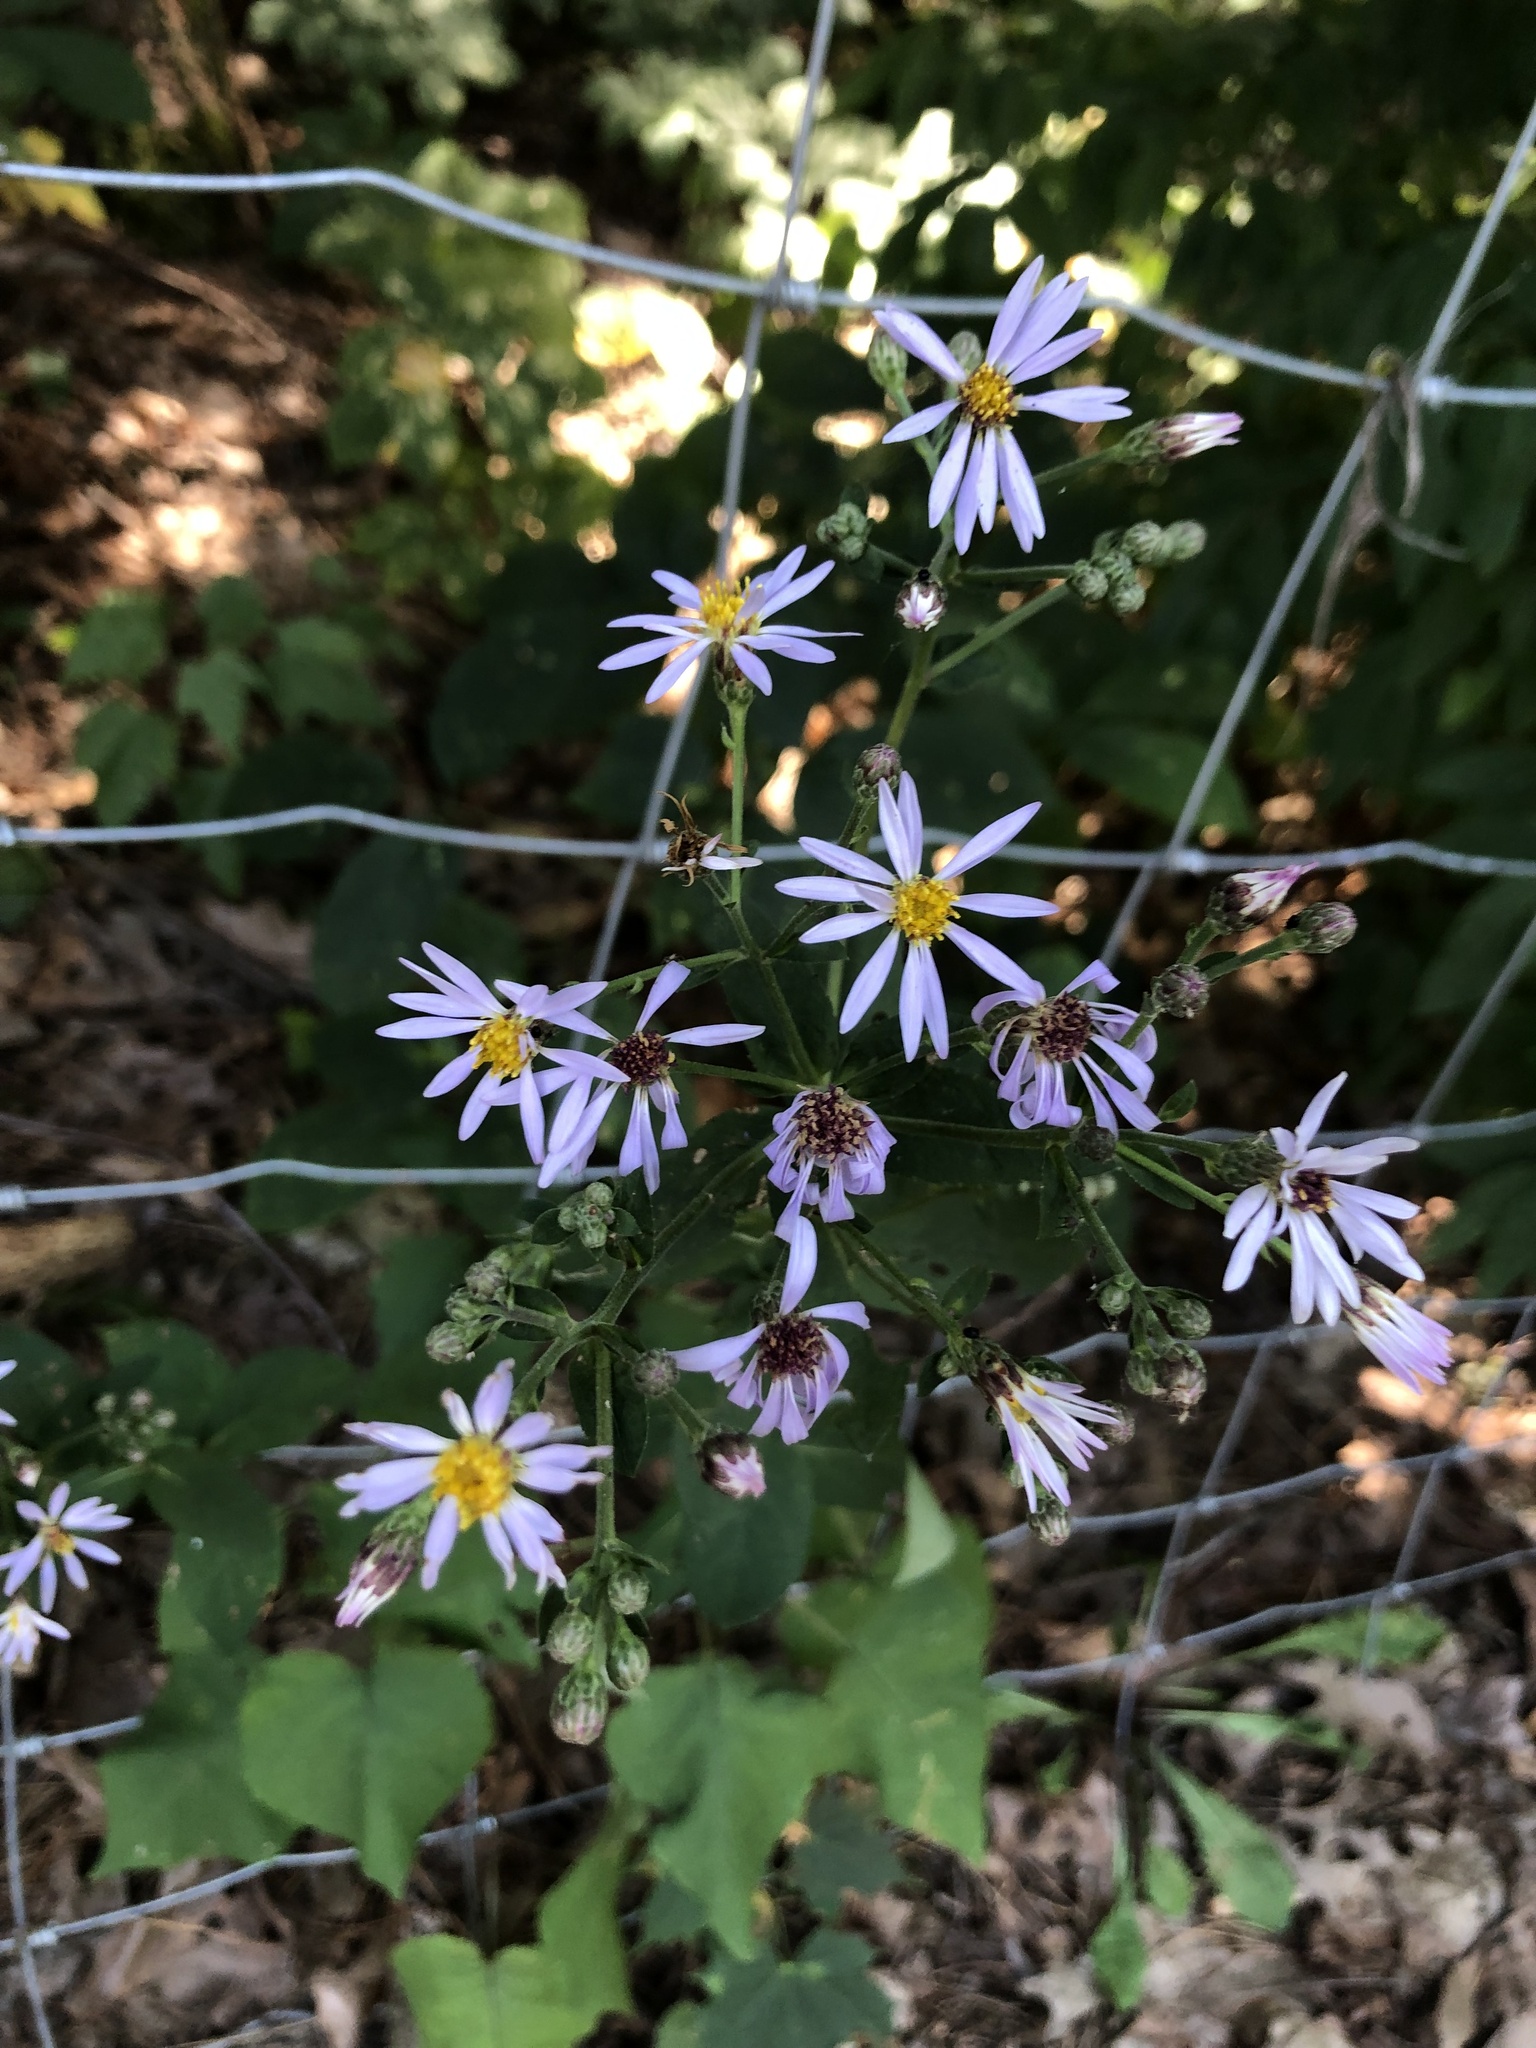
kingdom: Plantae
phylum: Tracheophyta
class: Magnoliopsida
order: Asterales
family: Asteraceae
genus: Eurybia
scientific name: Eurybia macrophylla
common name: Big-leaved aster
